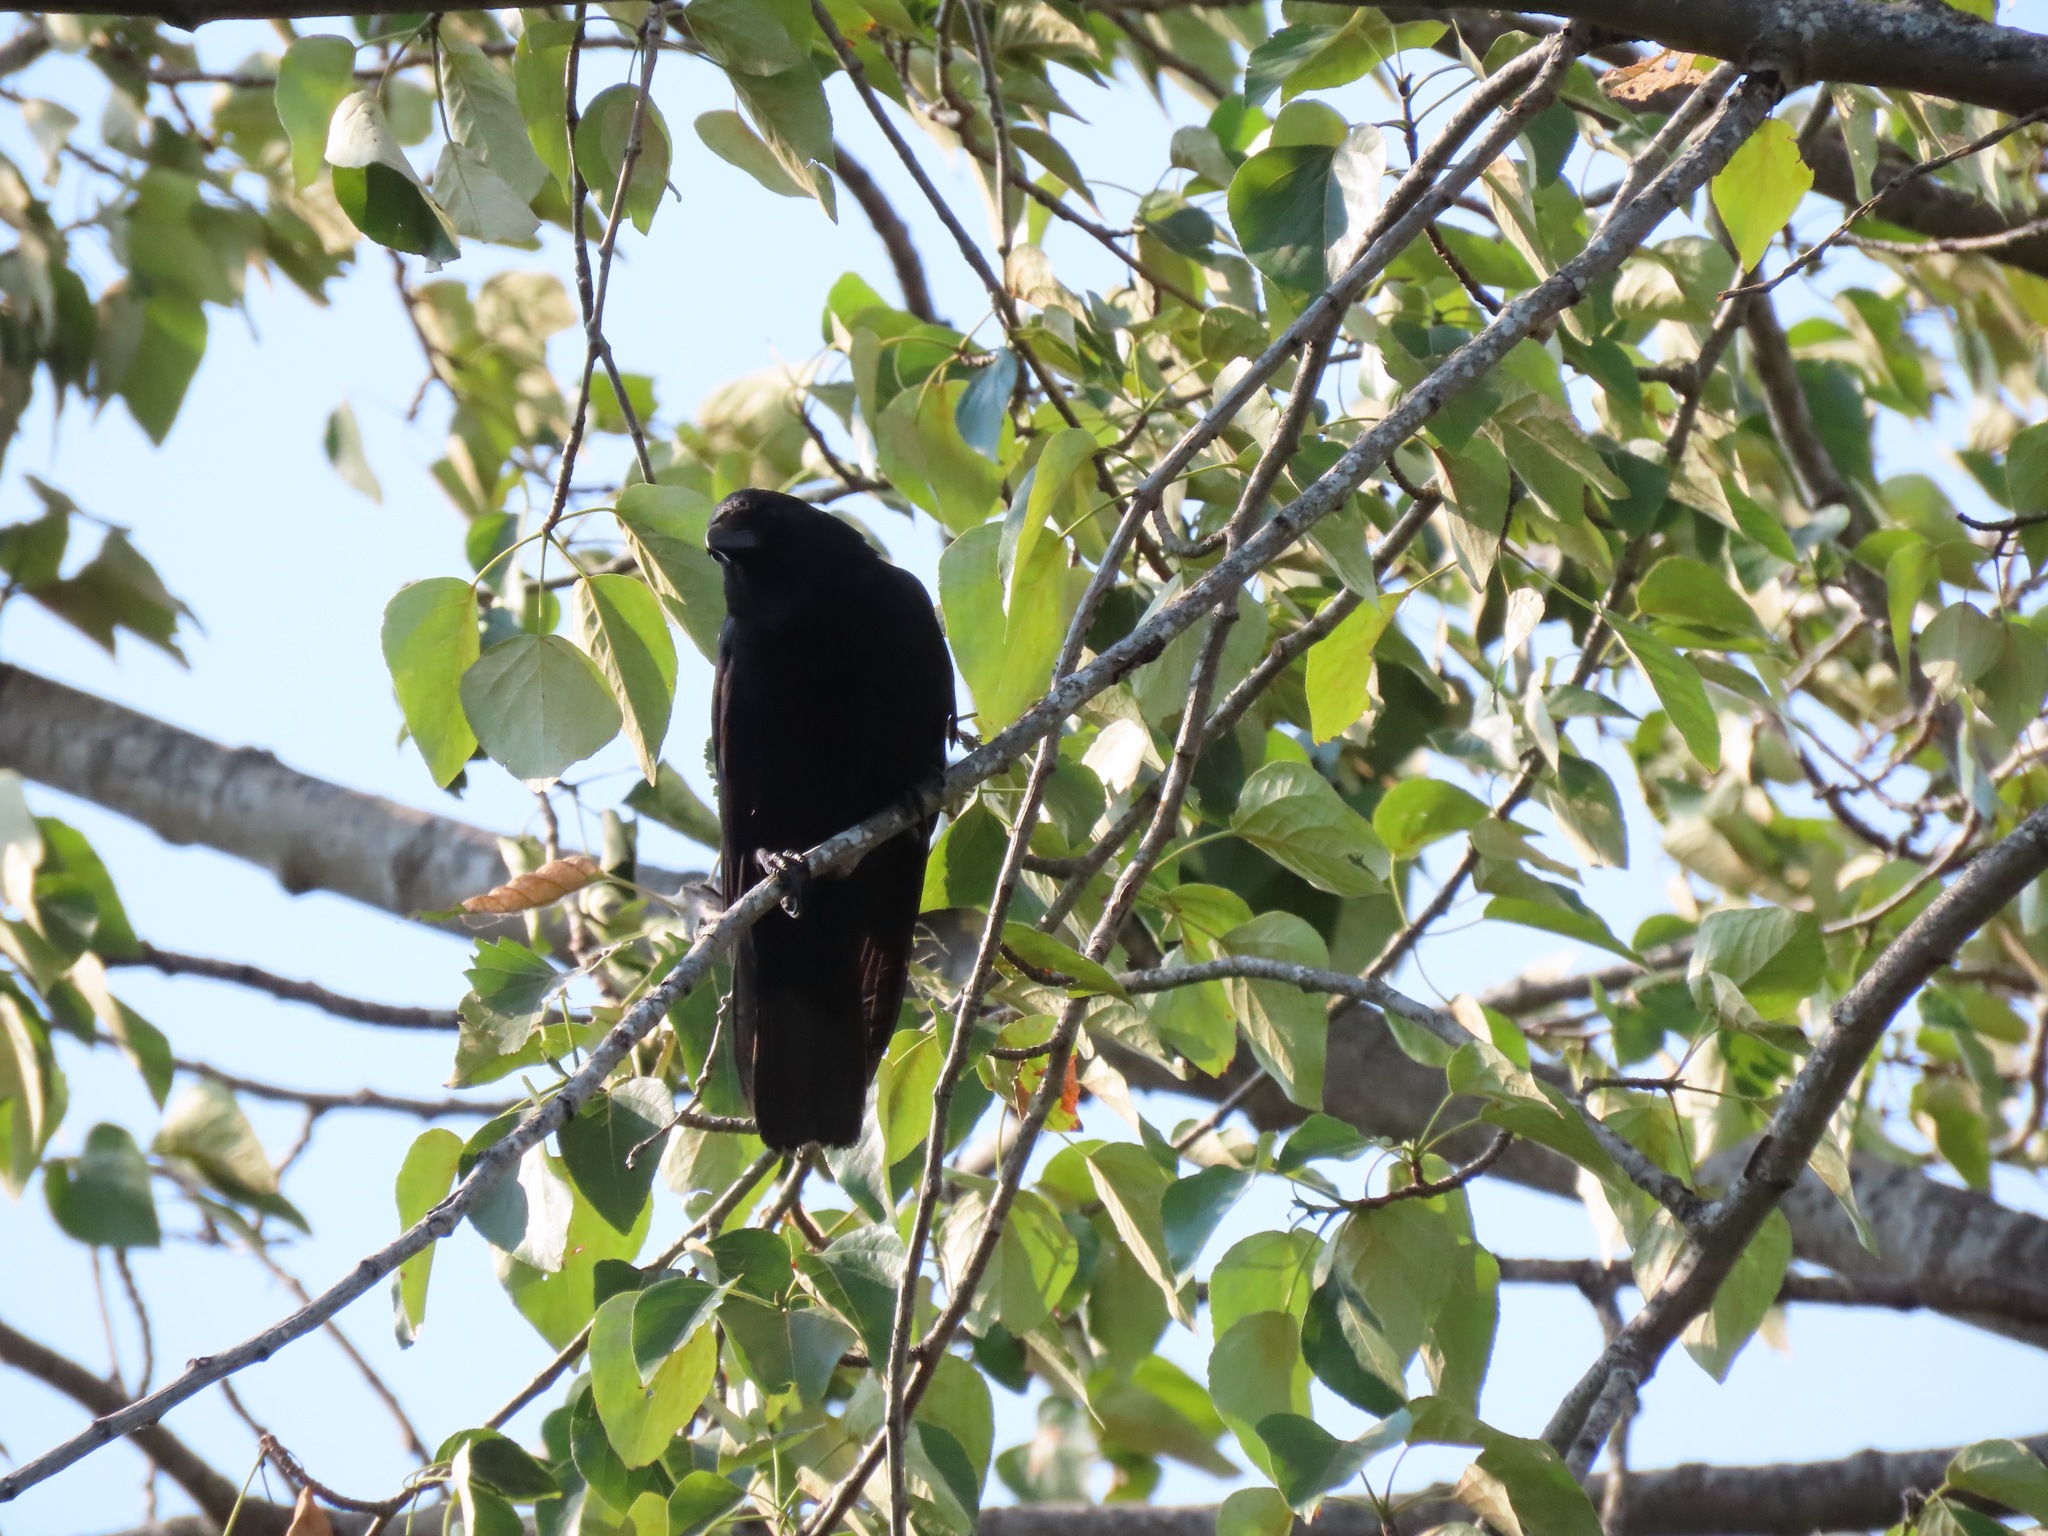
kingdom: Animalia
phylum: Chordata
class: Aves
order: Passeriformes
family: Corvidae
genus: Corvus
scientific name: Corvus brachyrhynchos
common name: American crow
